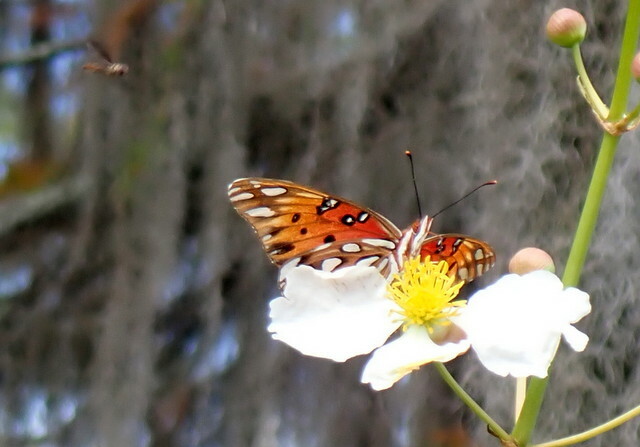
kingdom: Animalia
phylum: Arthropoda
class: Insecta
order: Lepidoptera
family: Nymphalidae
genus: Dione
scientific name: Dione vanillae
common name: Gulf fritillary
